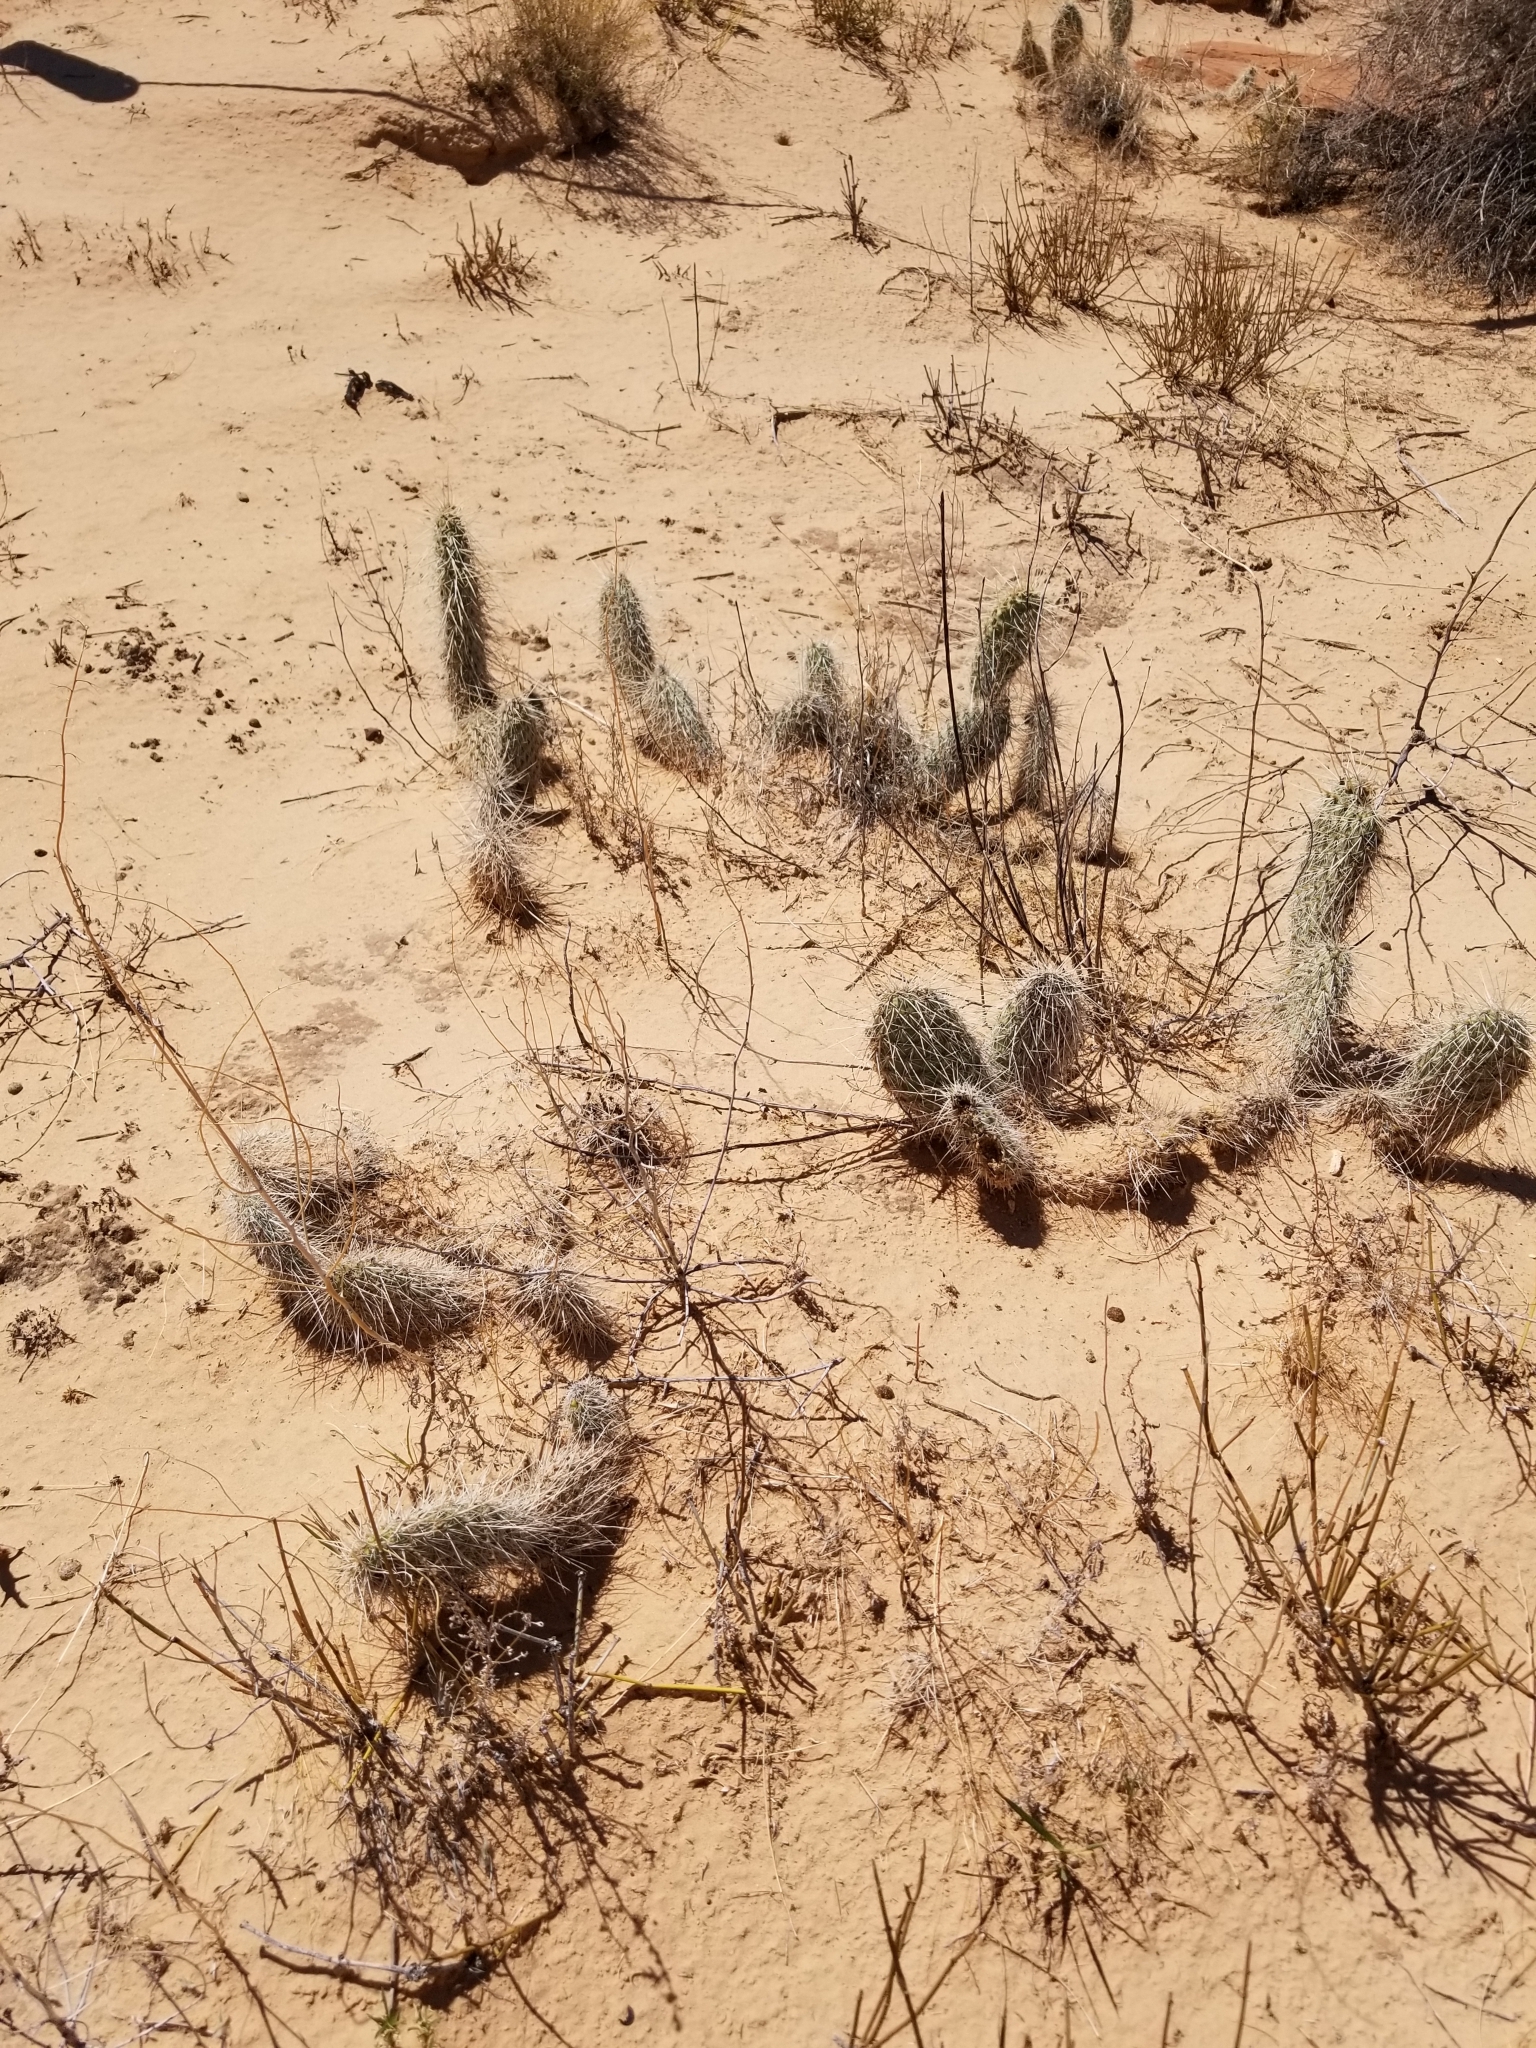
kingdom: Plantae
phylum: Tracheophyta
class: Magnoliopsida
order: Caryophyllales
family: Cactaceae
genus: Opuntia
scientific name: Opuntia polyacantha
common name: Plains prickly-pear
